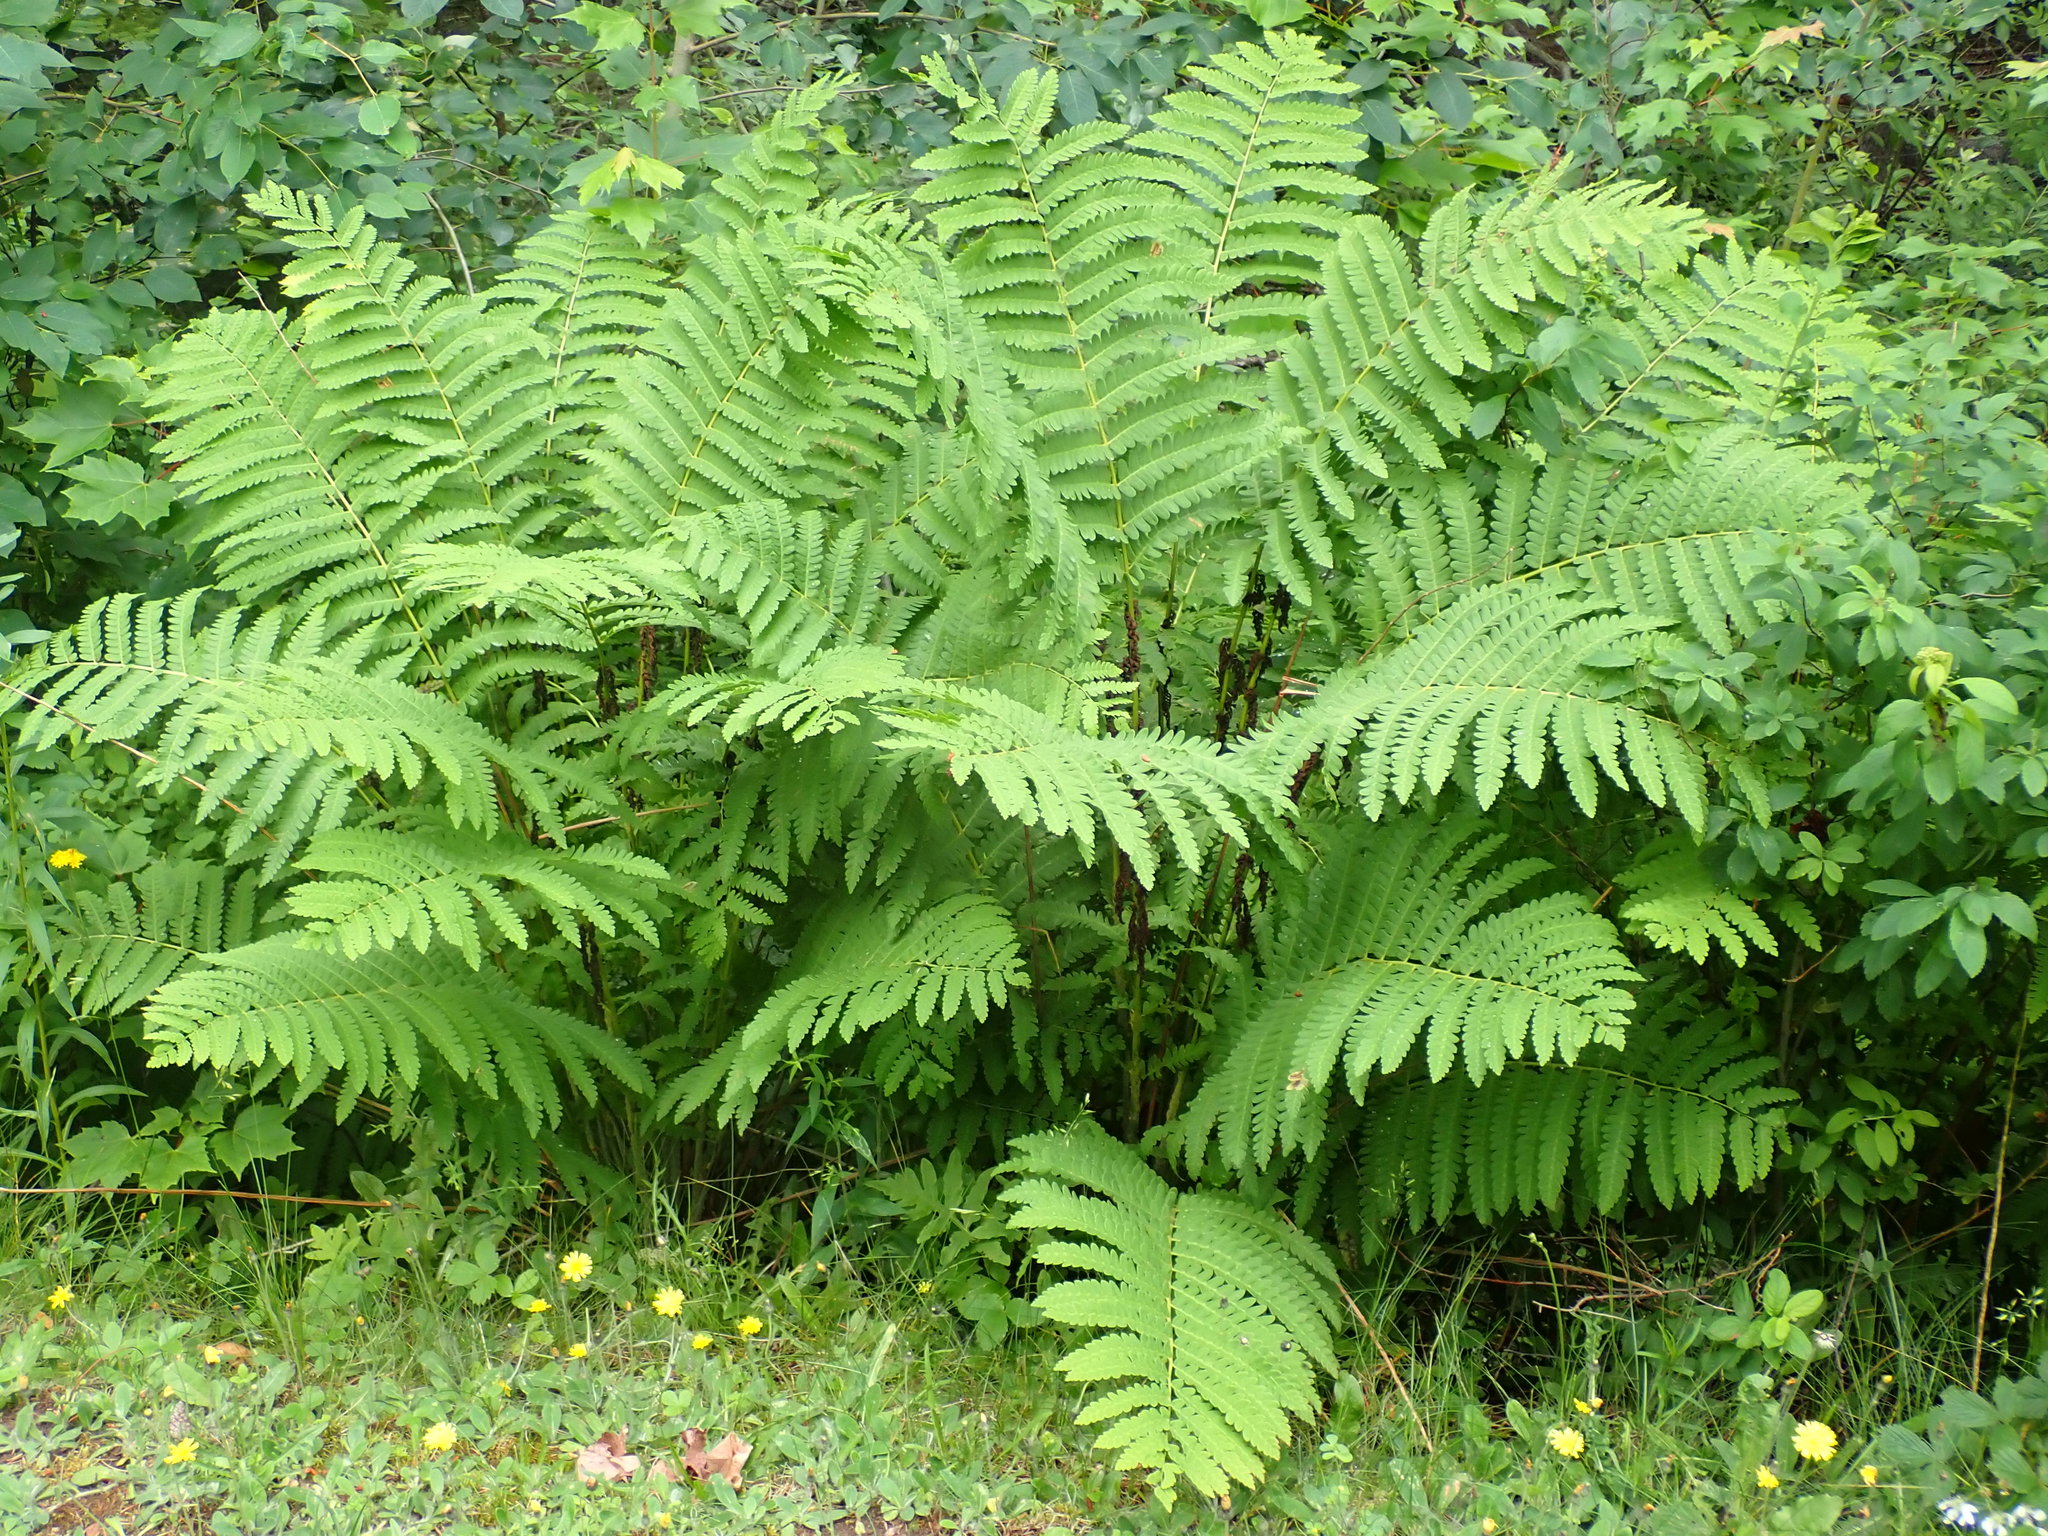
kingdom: Plantae
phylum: Tracheophyta
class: Polypodiopsida
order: Osmundales
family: Osmundaceae
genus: Claytosmunda
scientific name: Claytosmunda claytoniana
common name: Clayton's fern
